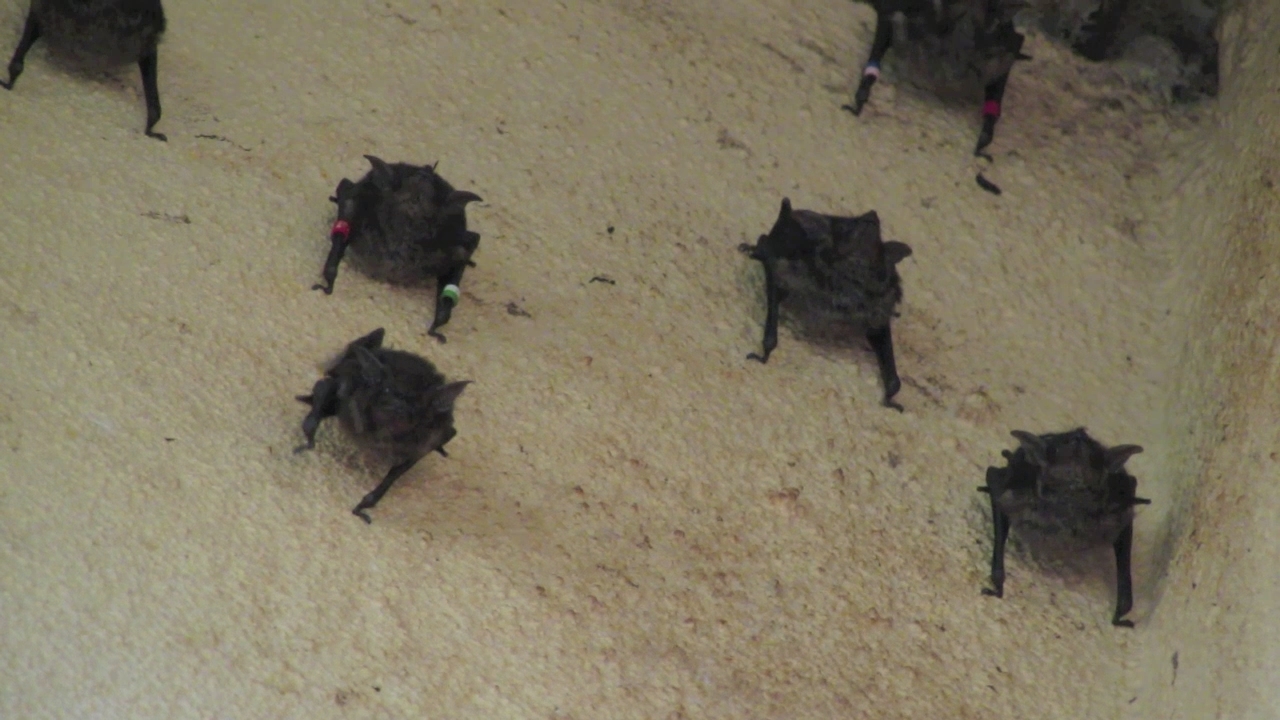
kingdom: Animalia
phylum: Chordata
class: Mammalia
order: Chiroptera
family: Emballonuridae
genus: Saccopteryx
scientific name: Saccopteryx bilineata
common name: Greater sac-winged bat
